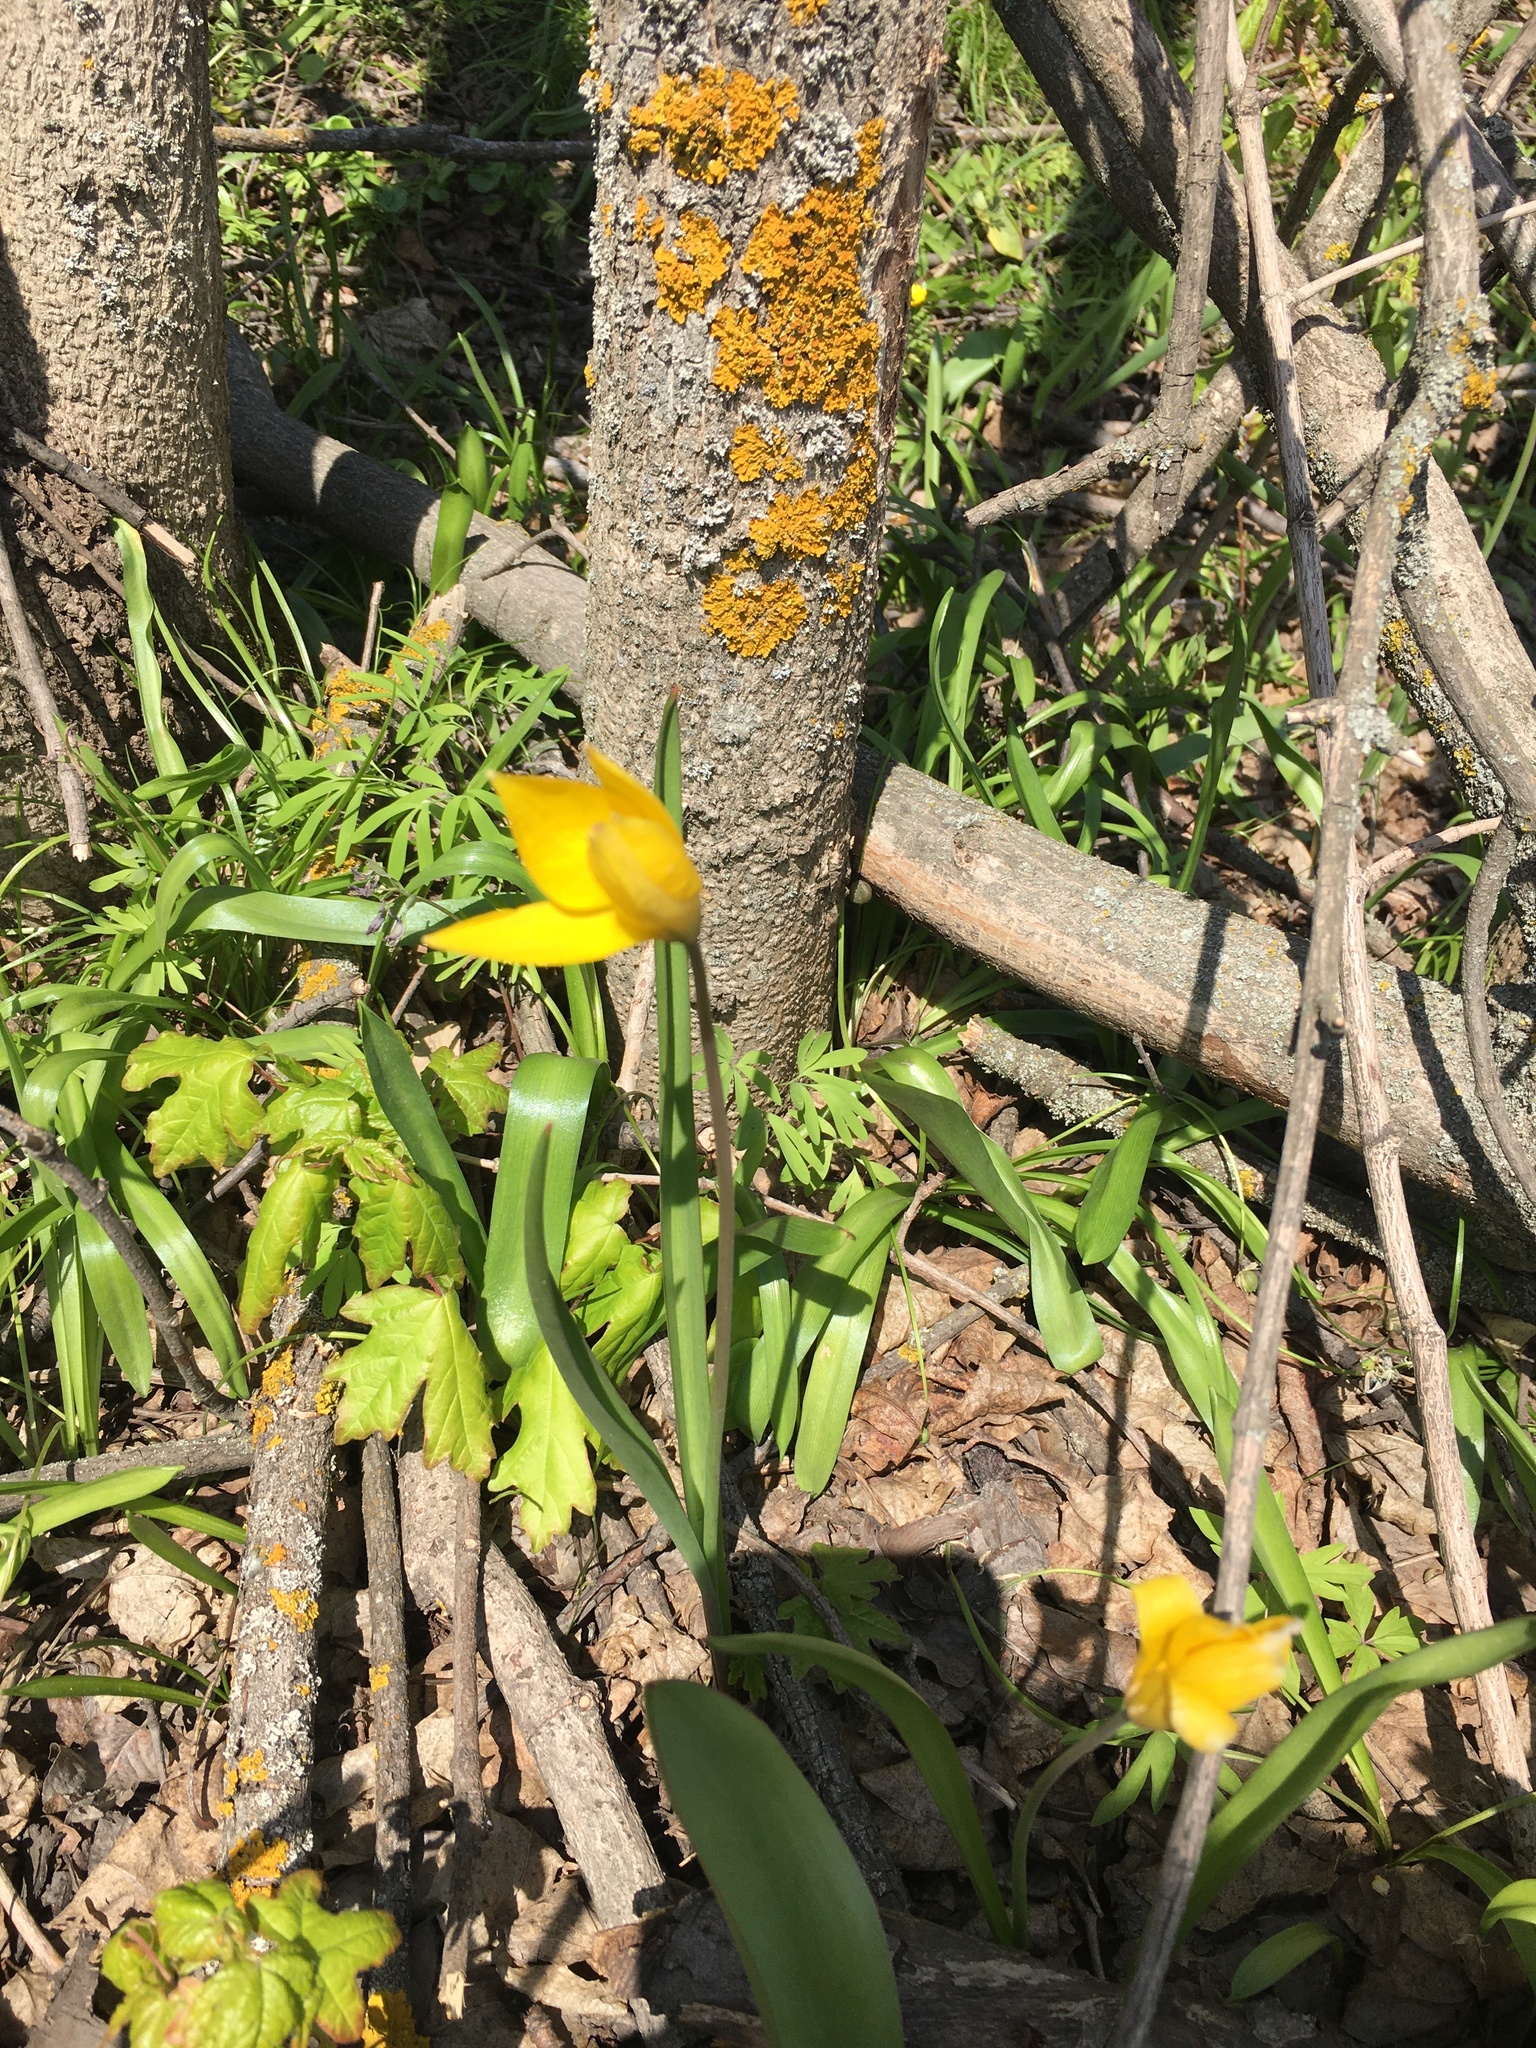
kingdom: Plantae
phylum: Tracheophyta
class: Liliopsida
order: Liliales
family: Liliaceae
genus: Tulipa
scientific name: Tulipa sylvestris
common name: Wild tulip
